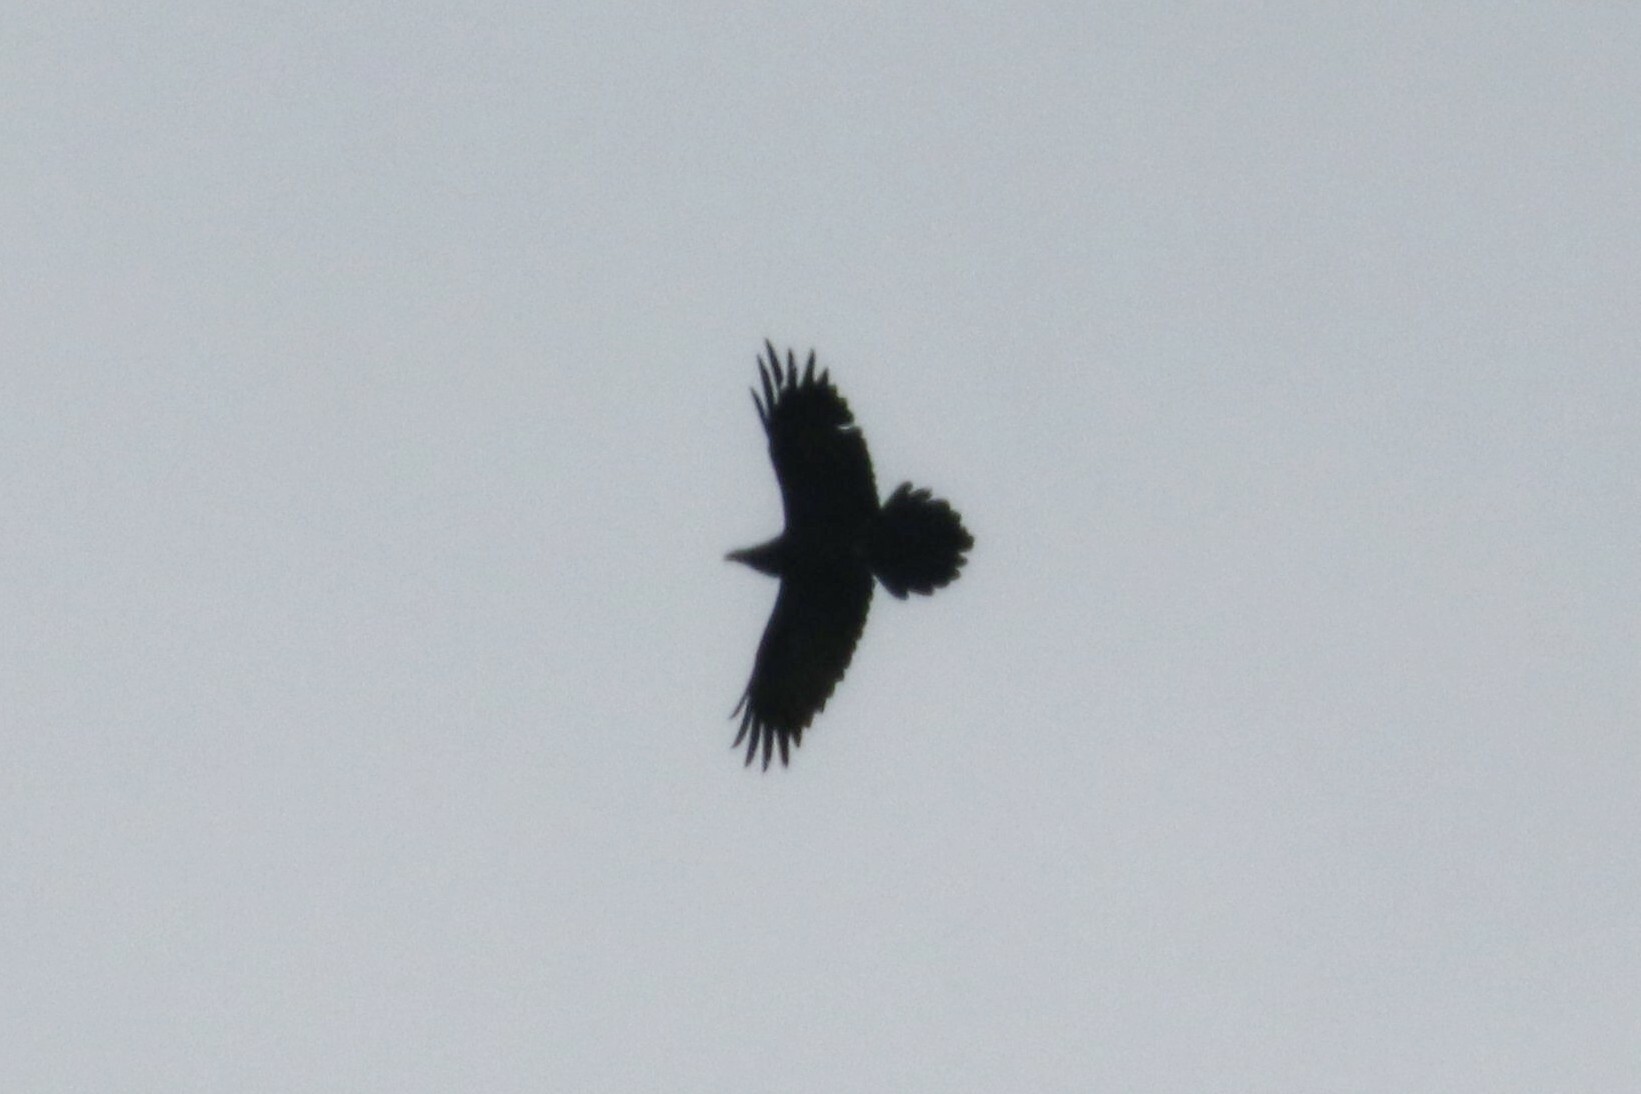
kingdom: Animalia
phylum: Chordata
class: Aves
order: Passeriformes
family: Corvidae
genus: Corvus
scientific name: Corvus corax
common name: Common raven
